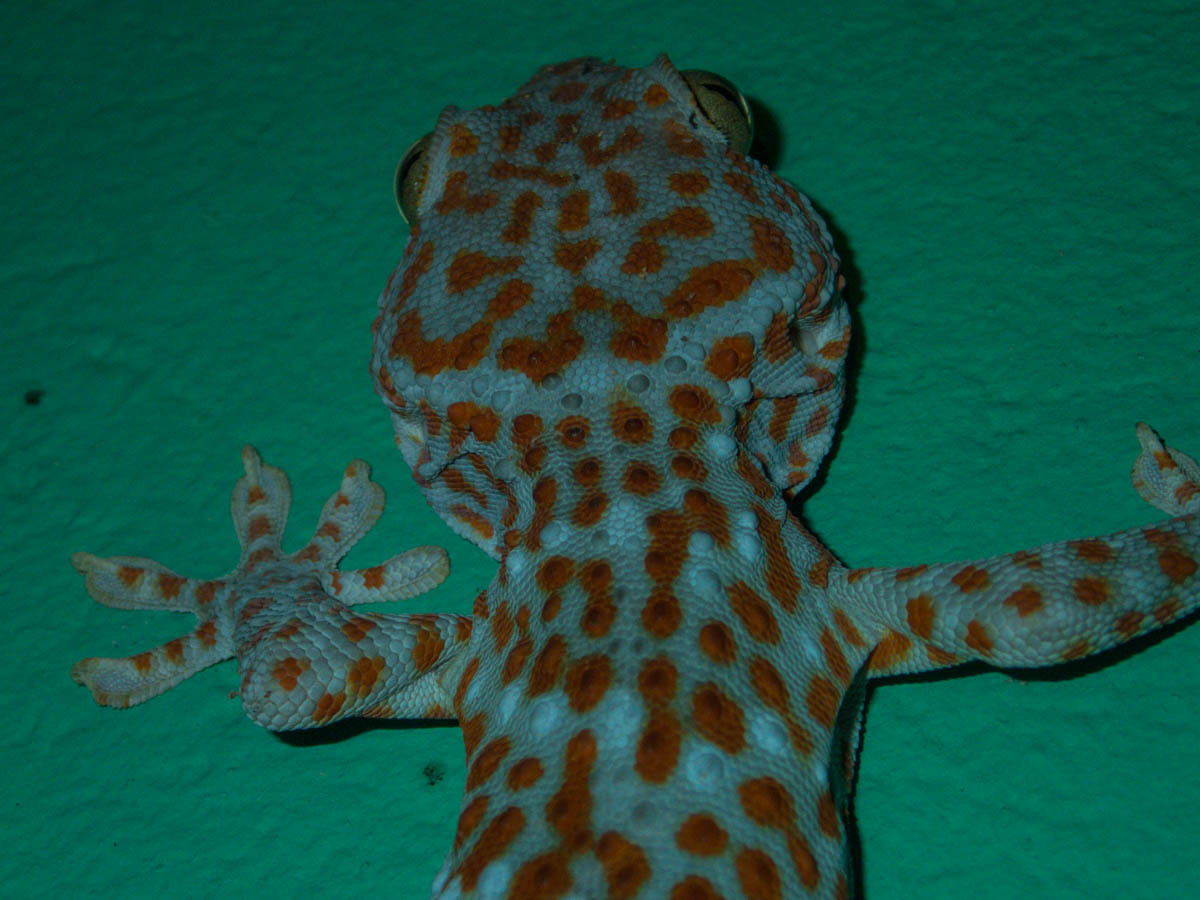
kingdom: Animalia
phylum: Chordata
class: Squamata
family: Gekkonidae
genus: Gekko
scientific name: Gekko gecko
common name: Tokay gecko
